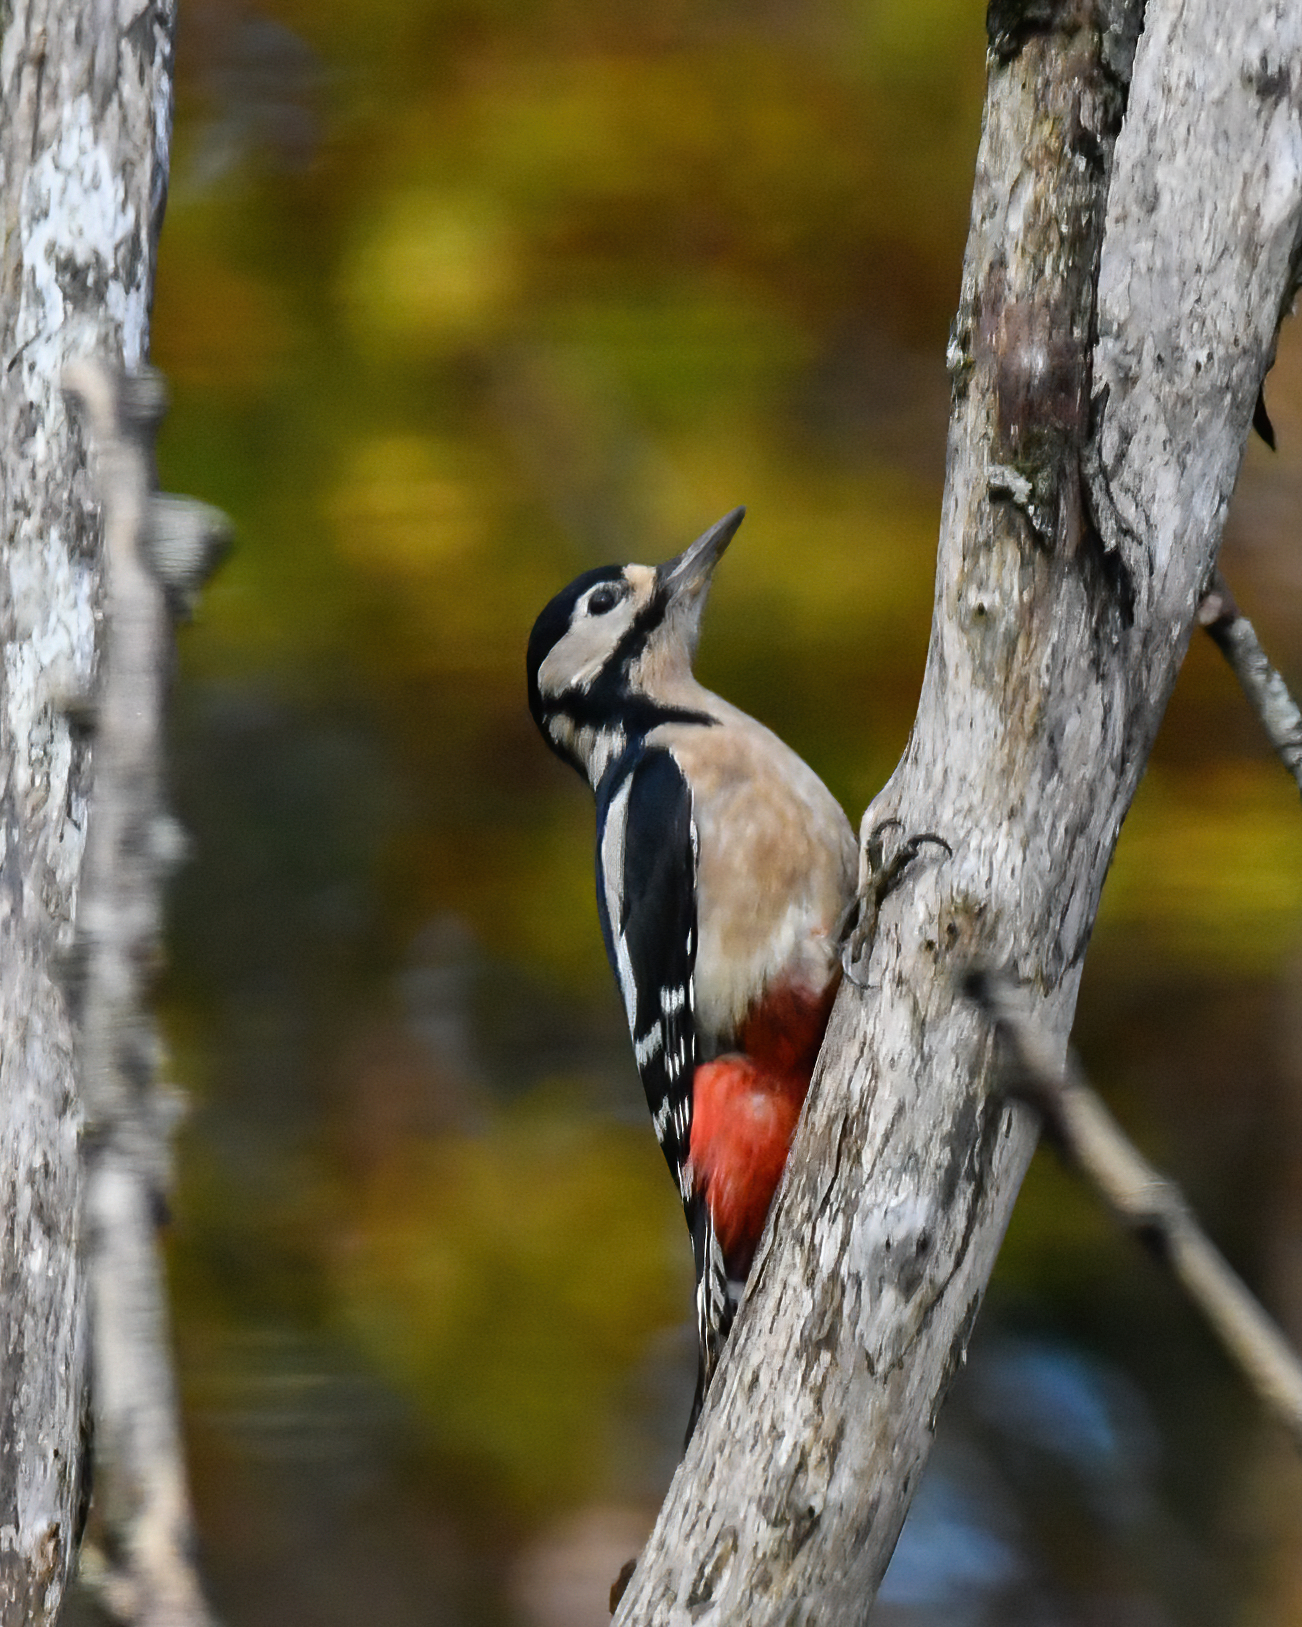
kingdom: Animalia
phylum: Chordata
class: Aves
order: Piciformes
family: Picidae
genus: Dendrocopos
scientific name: Dendrocopos major
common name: Great spotted woodpecker
